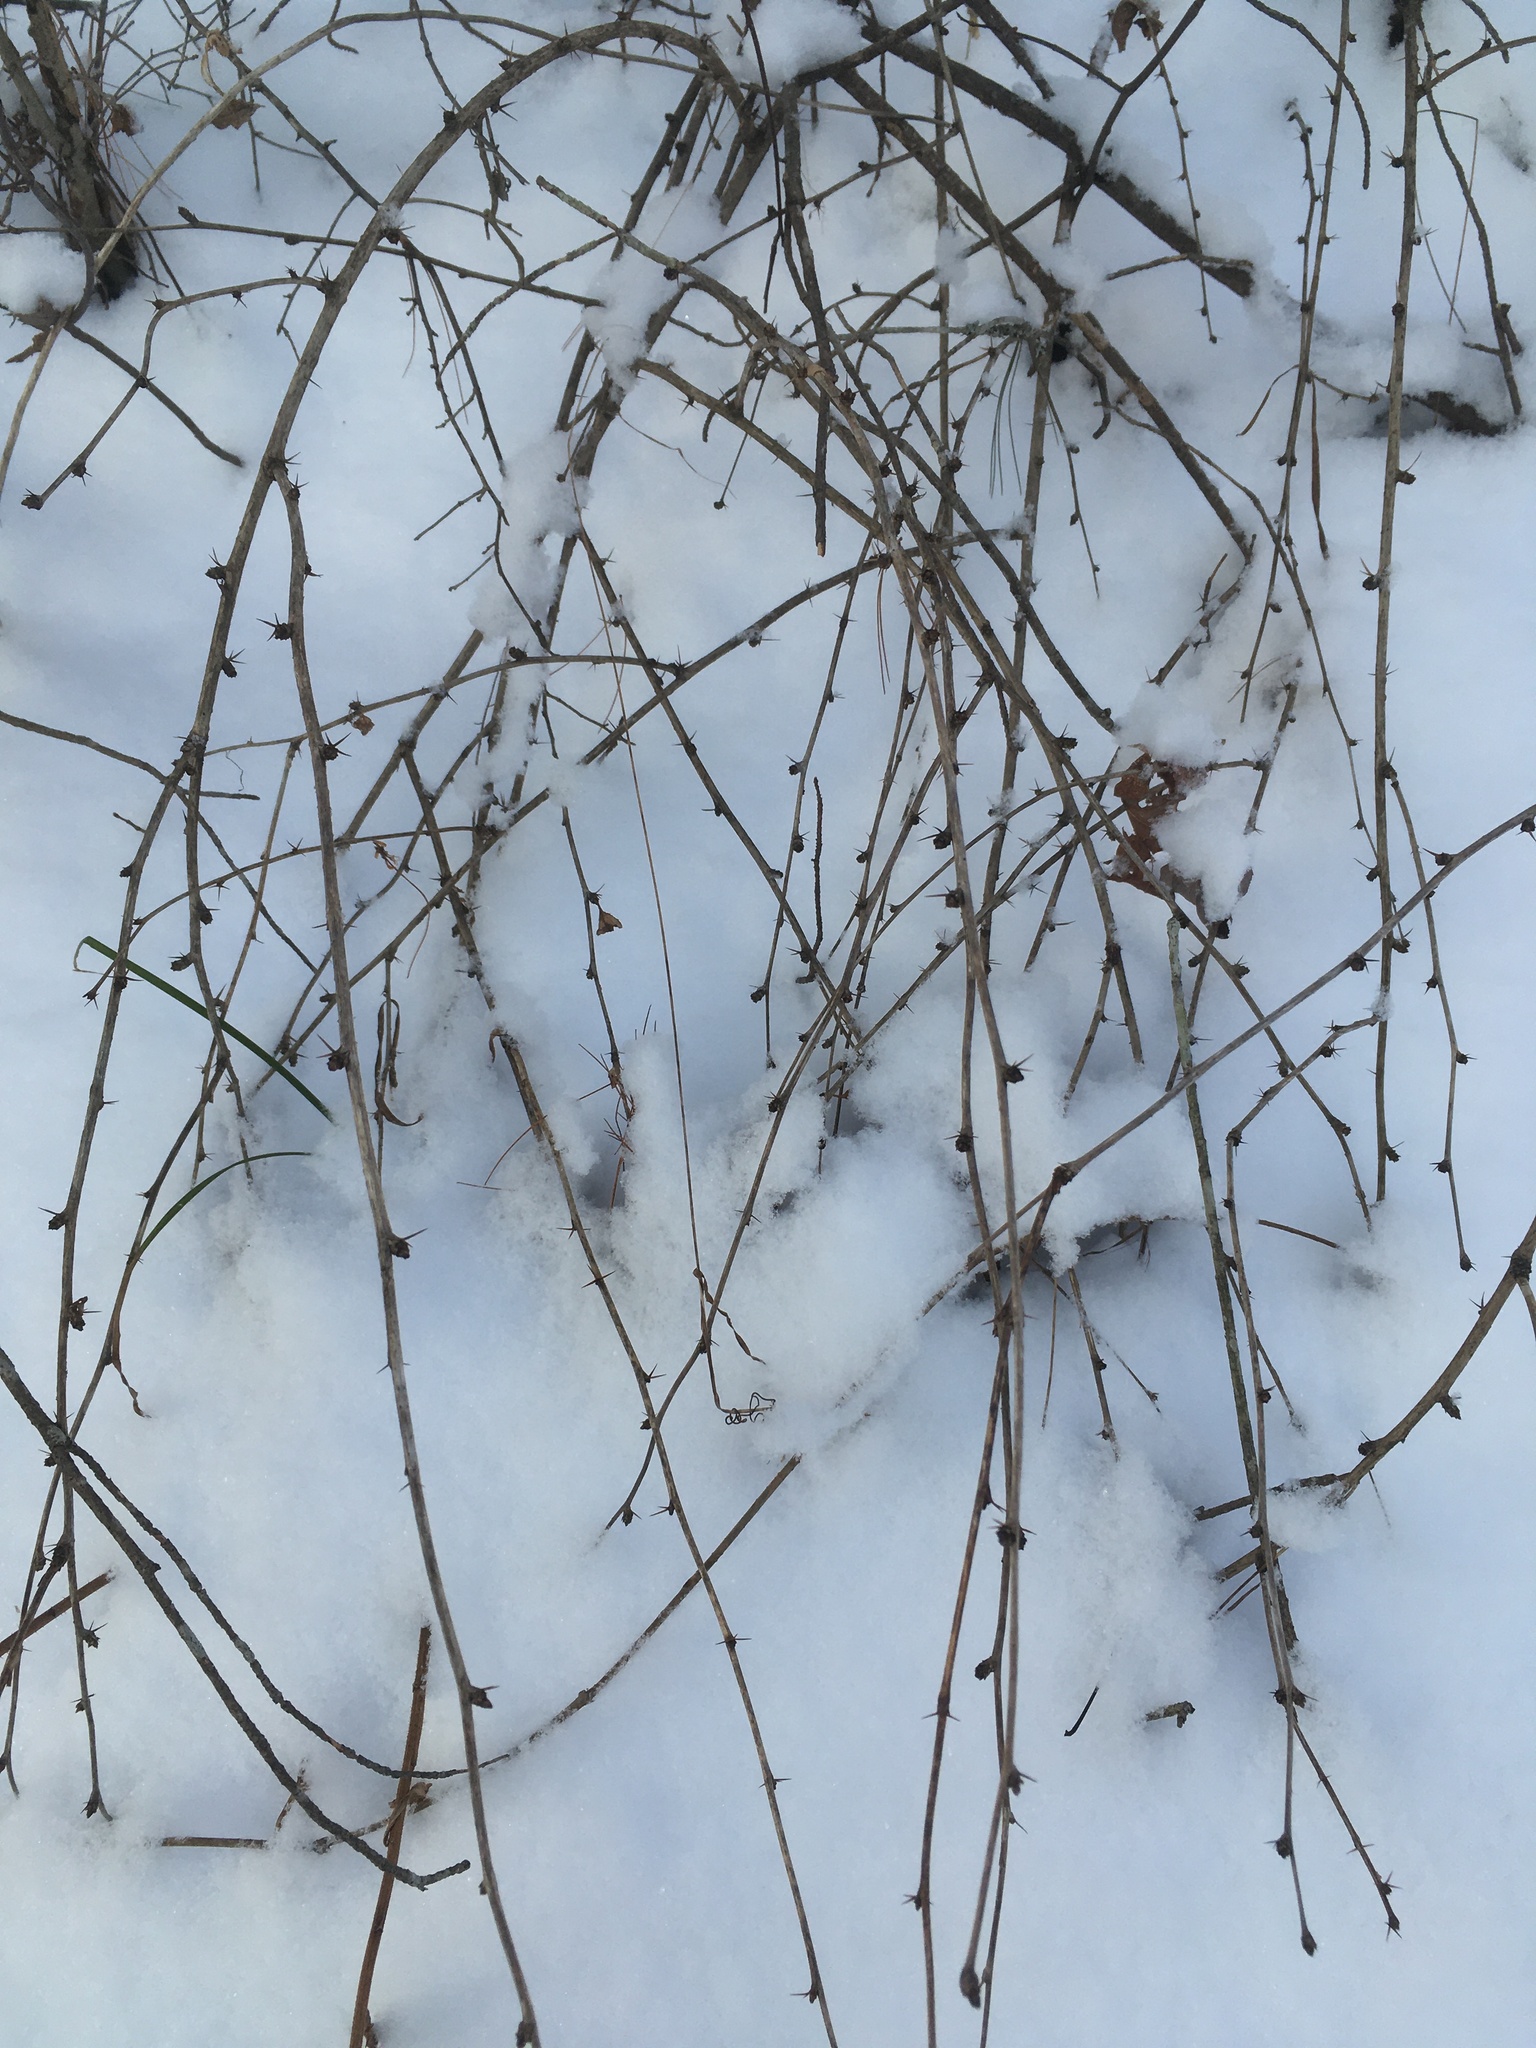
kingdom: Plantae
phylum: Tracheophyta
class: Magnoliopsida
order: Ranunculales
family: Berberidaceae
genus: Berberis
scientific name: Berberis vulgaris
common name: Barberry
